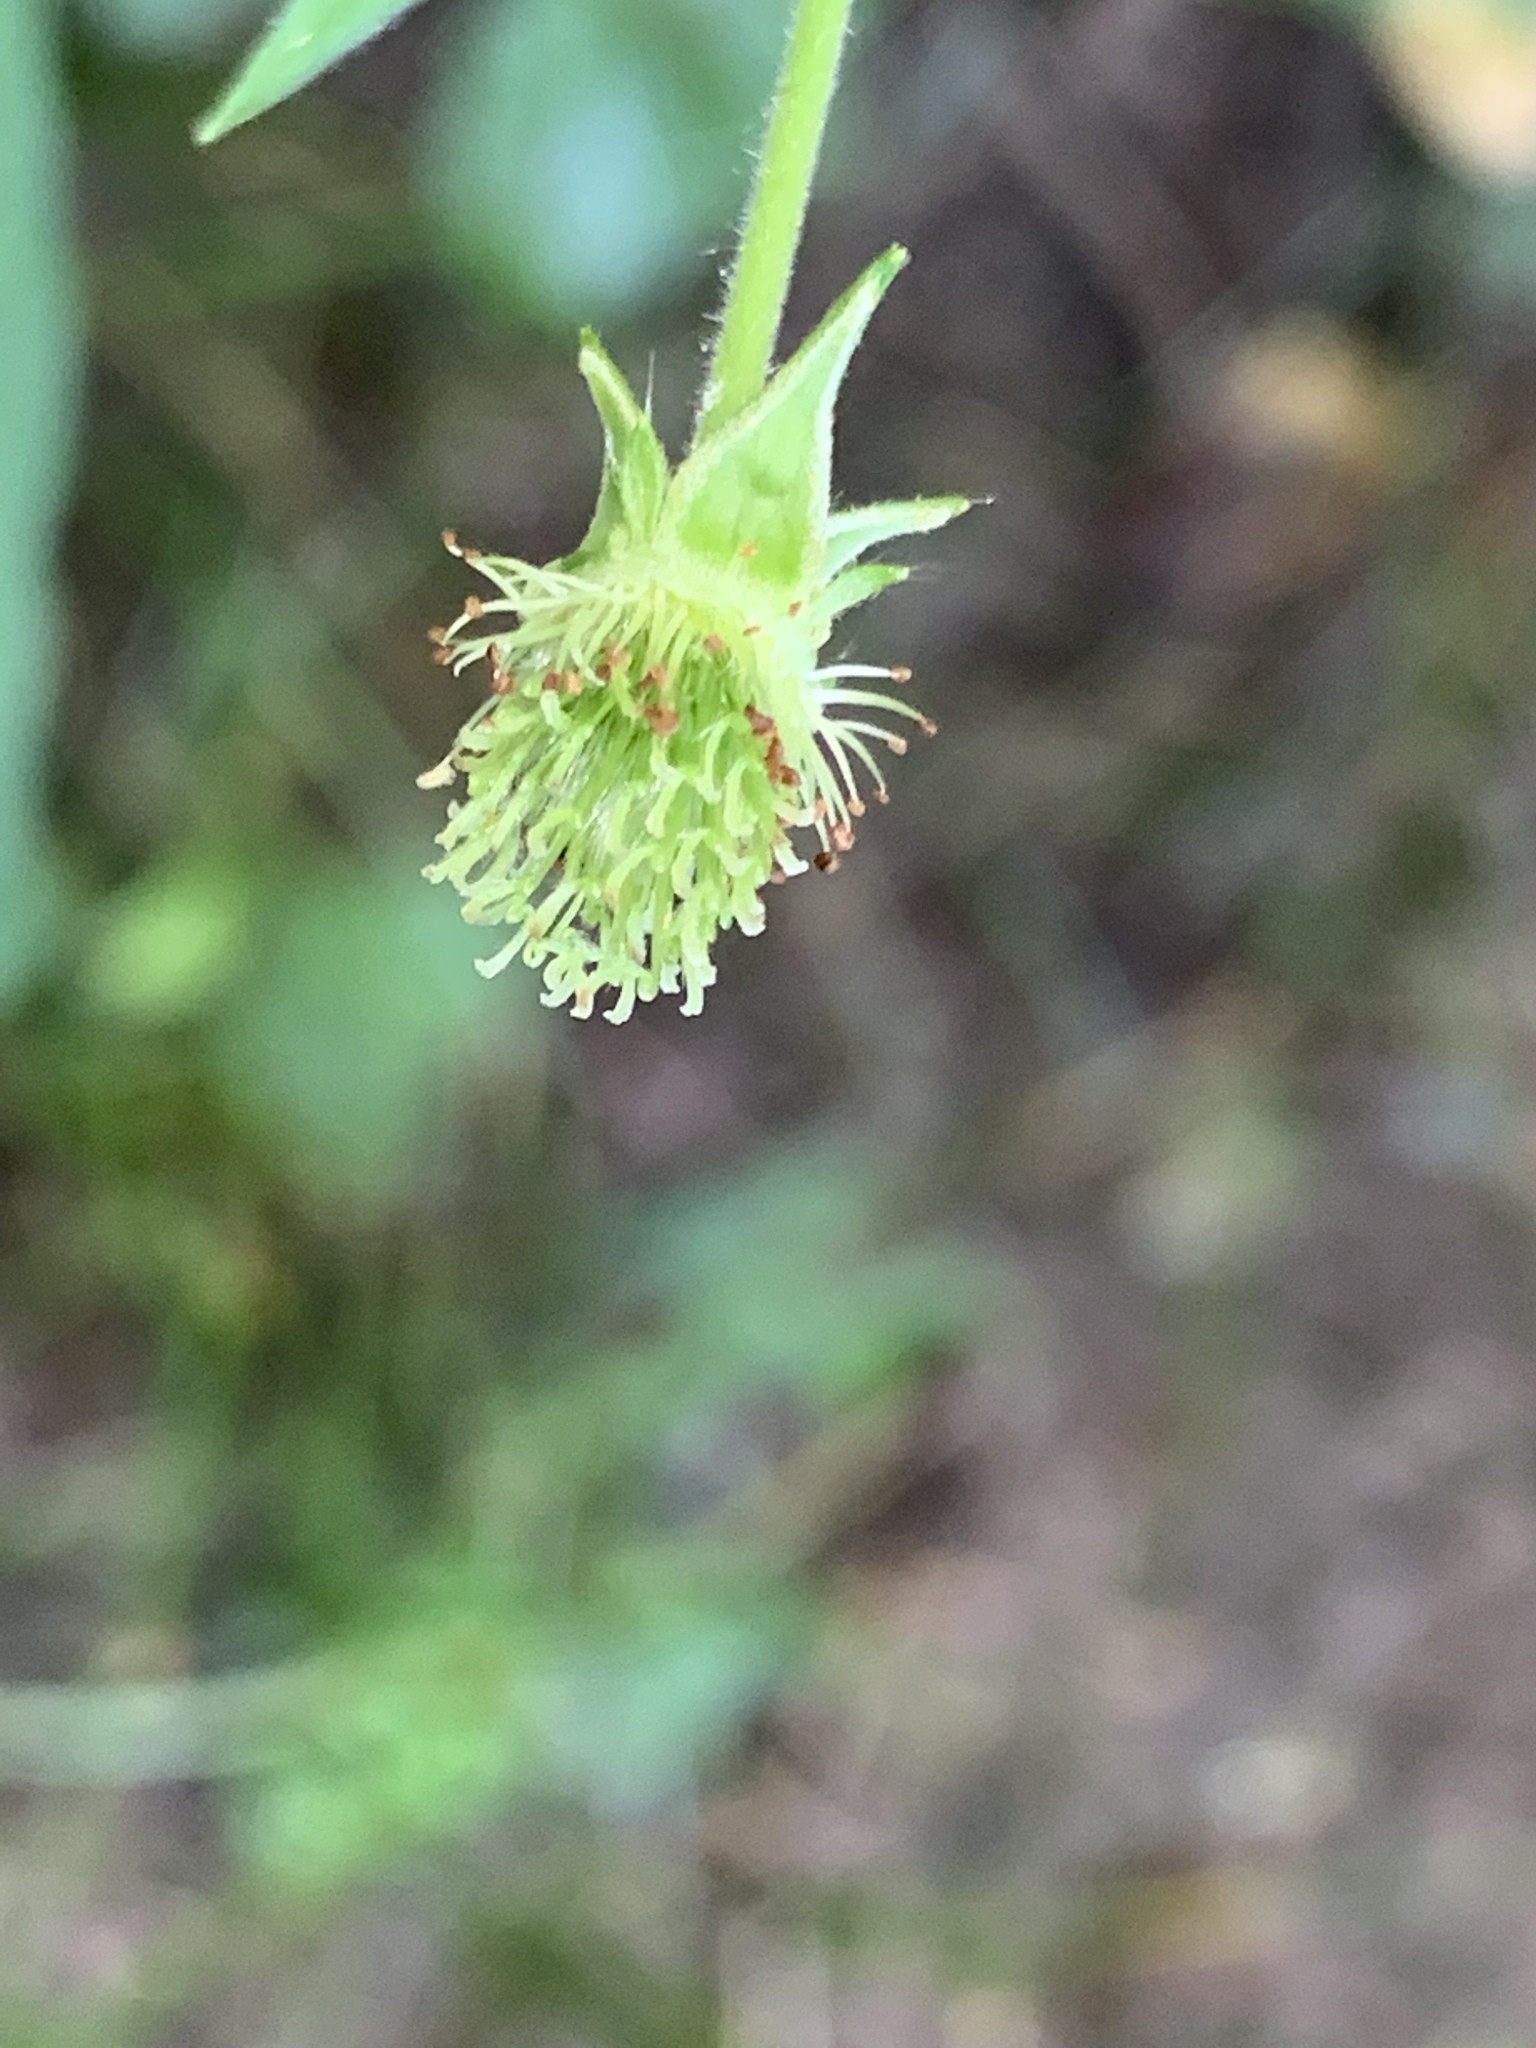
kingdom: Plantae
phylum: Tracheophyta
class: Magnoliopsida
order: Rosales
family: Rosaceae
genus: Geum
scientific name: Geum canadense
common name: White avens
